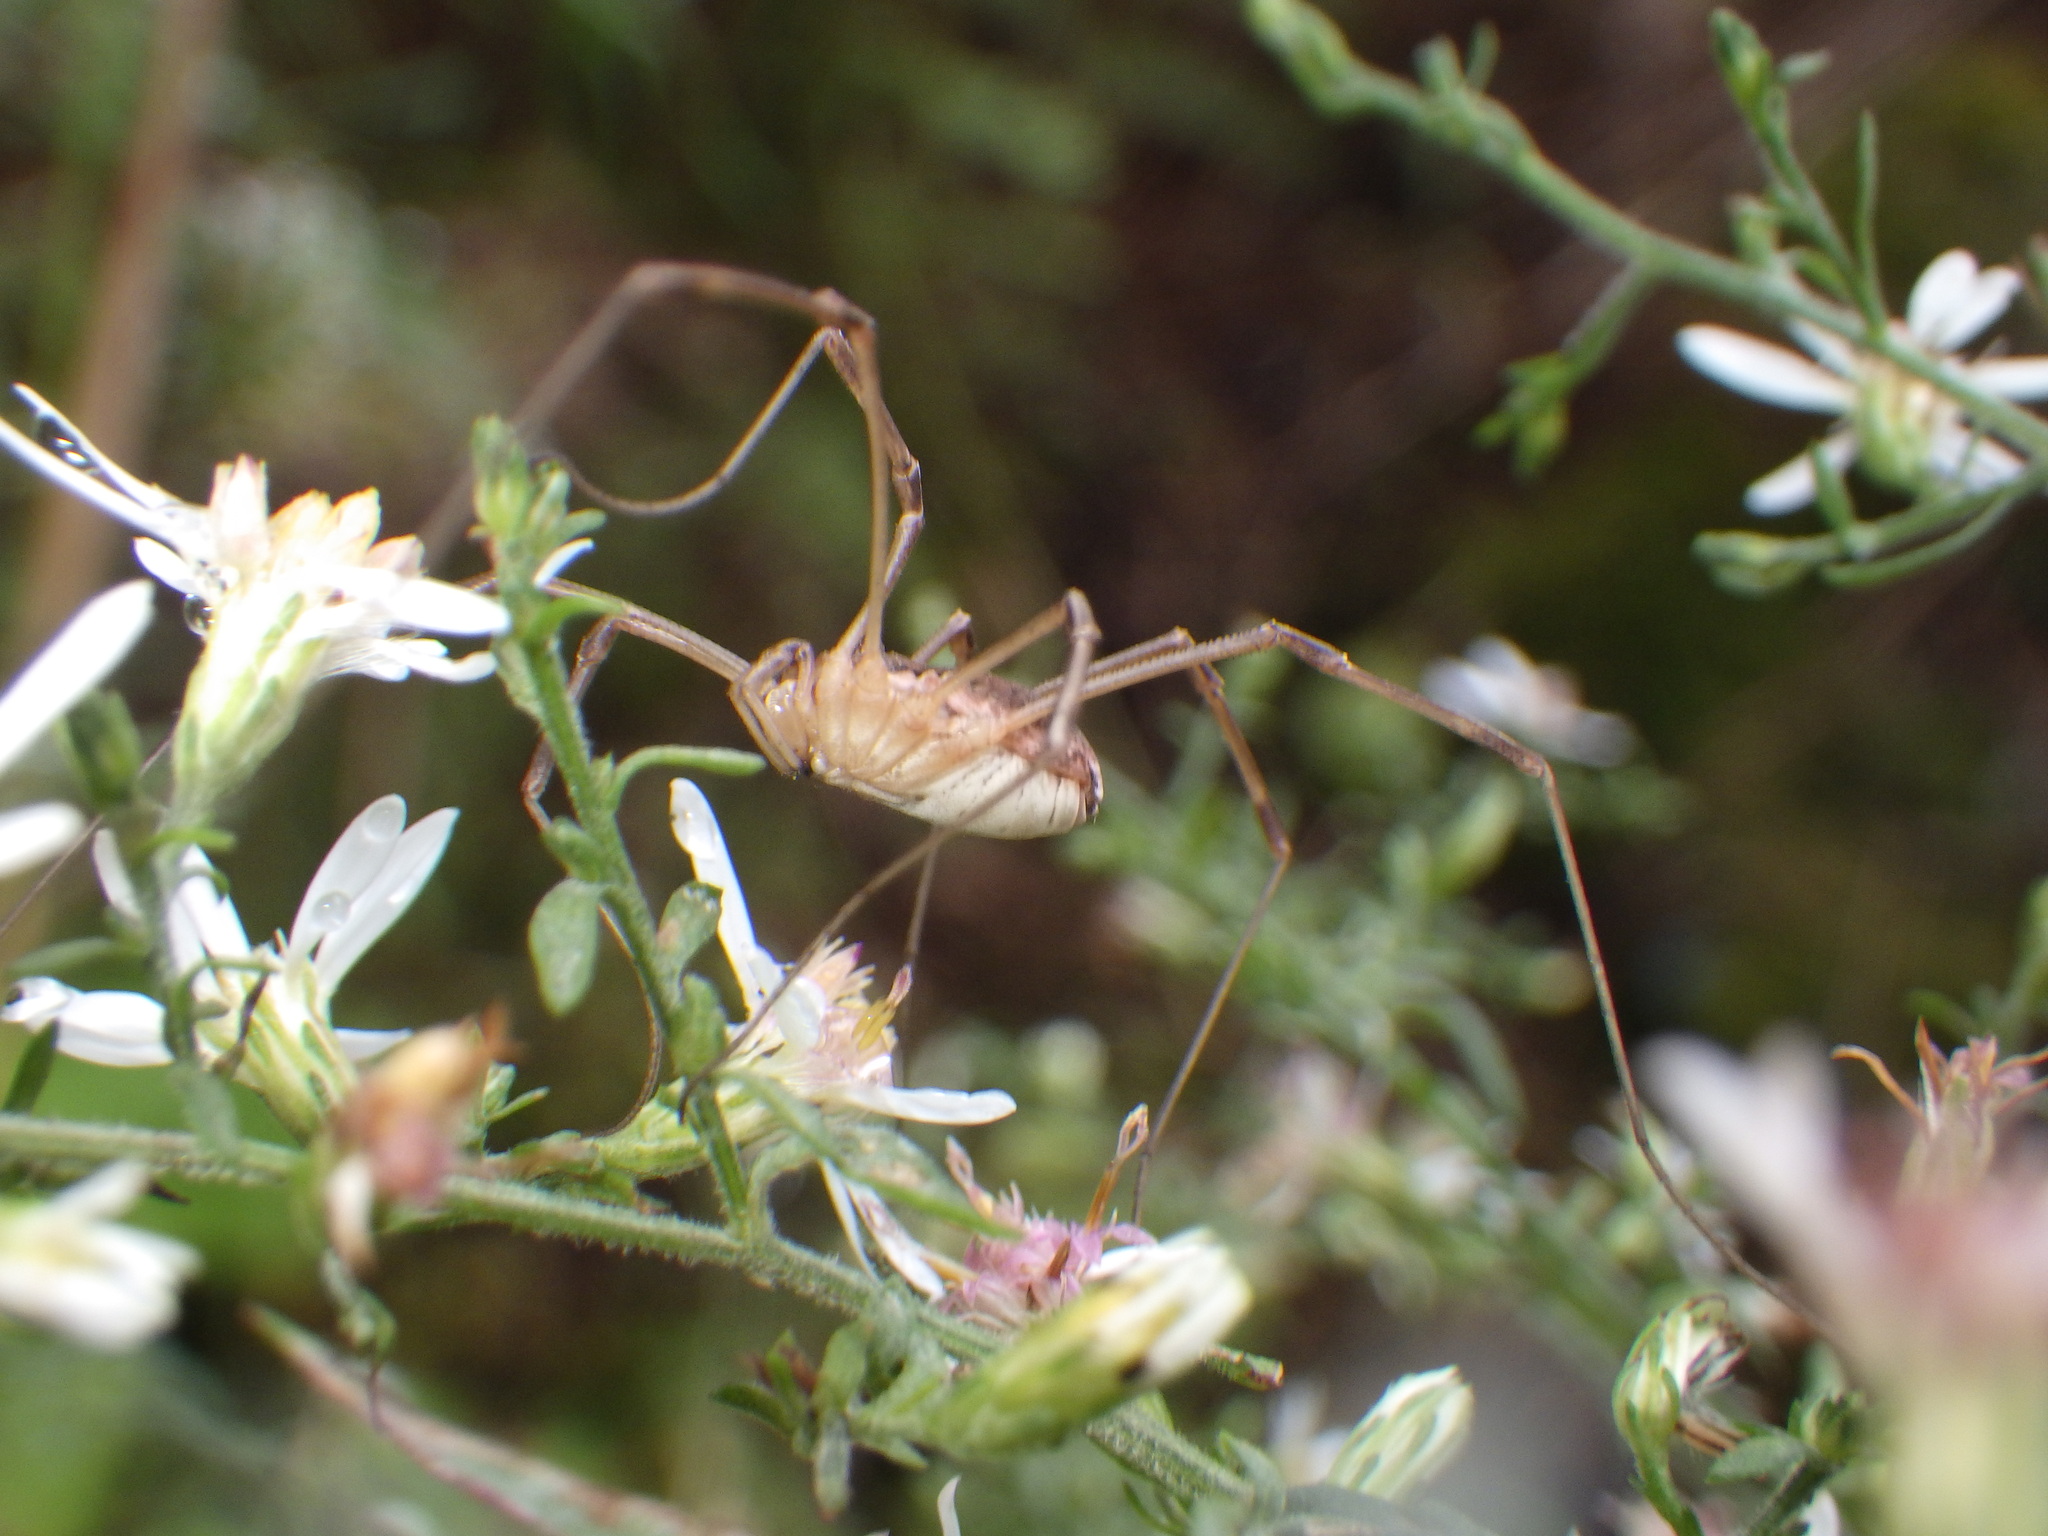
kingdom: Animalia
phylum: Arthropoda
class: Arachnida
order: Opiliones
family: Phalangiidae
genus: Mitopus
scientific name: Mitopus morio
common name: Saddleback harvestman
